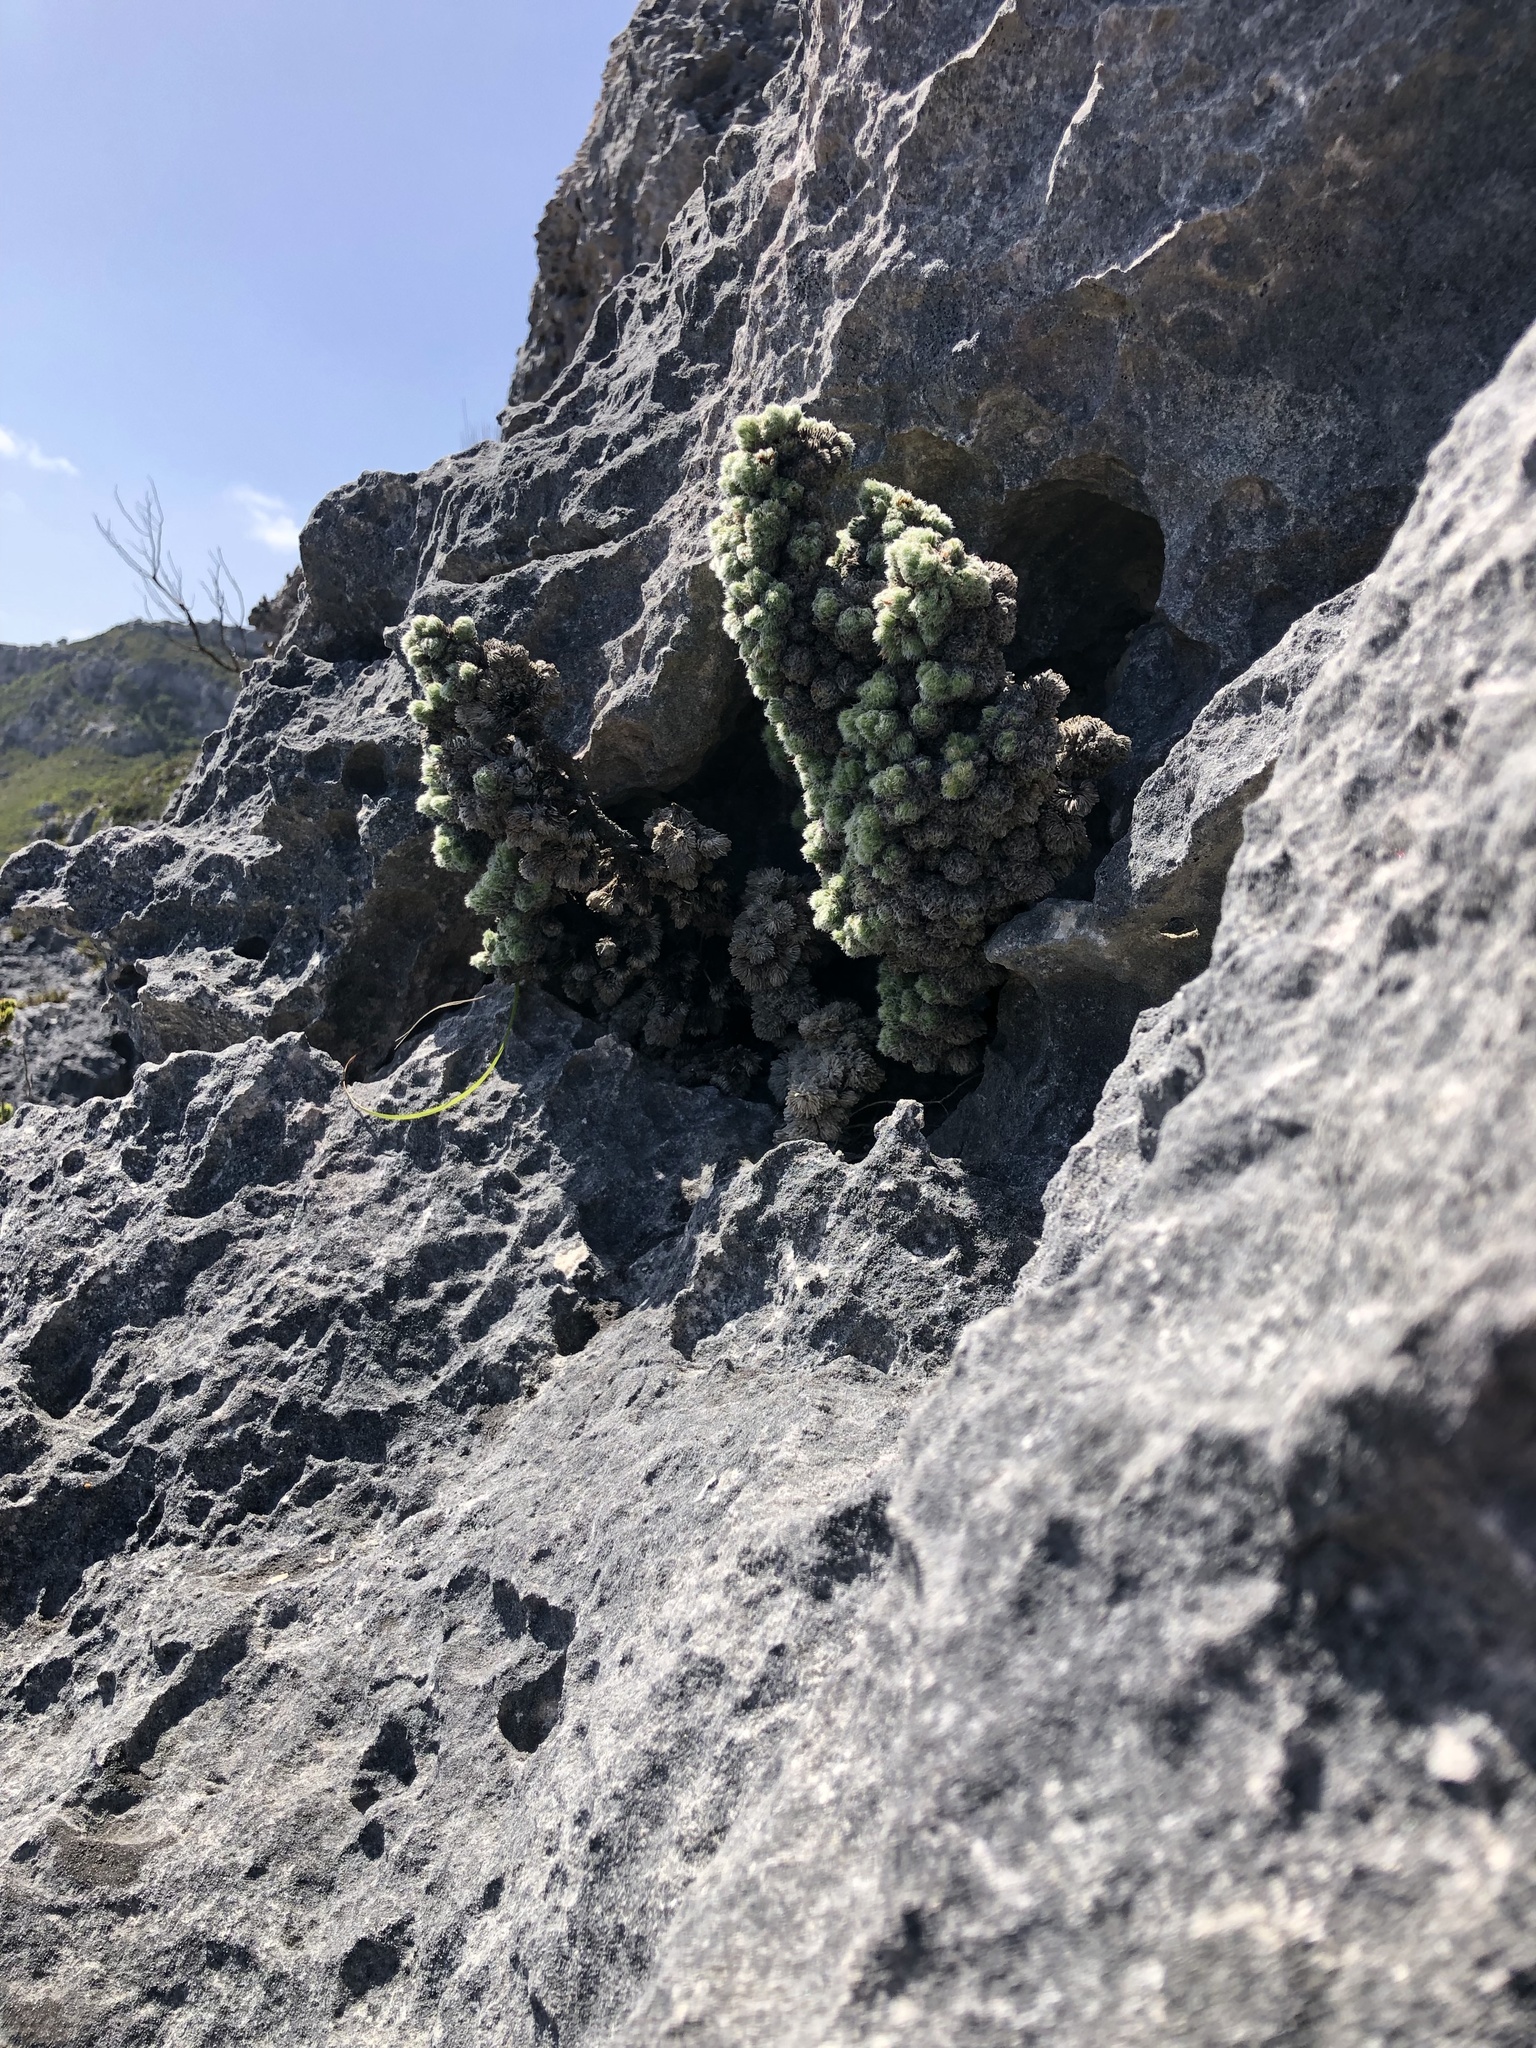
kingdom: Plantae
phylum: Tracheophyta
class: Magnoliopsida
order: Ericales
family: Ericaceae
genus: Erica
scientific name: Erica occulta
